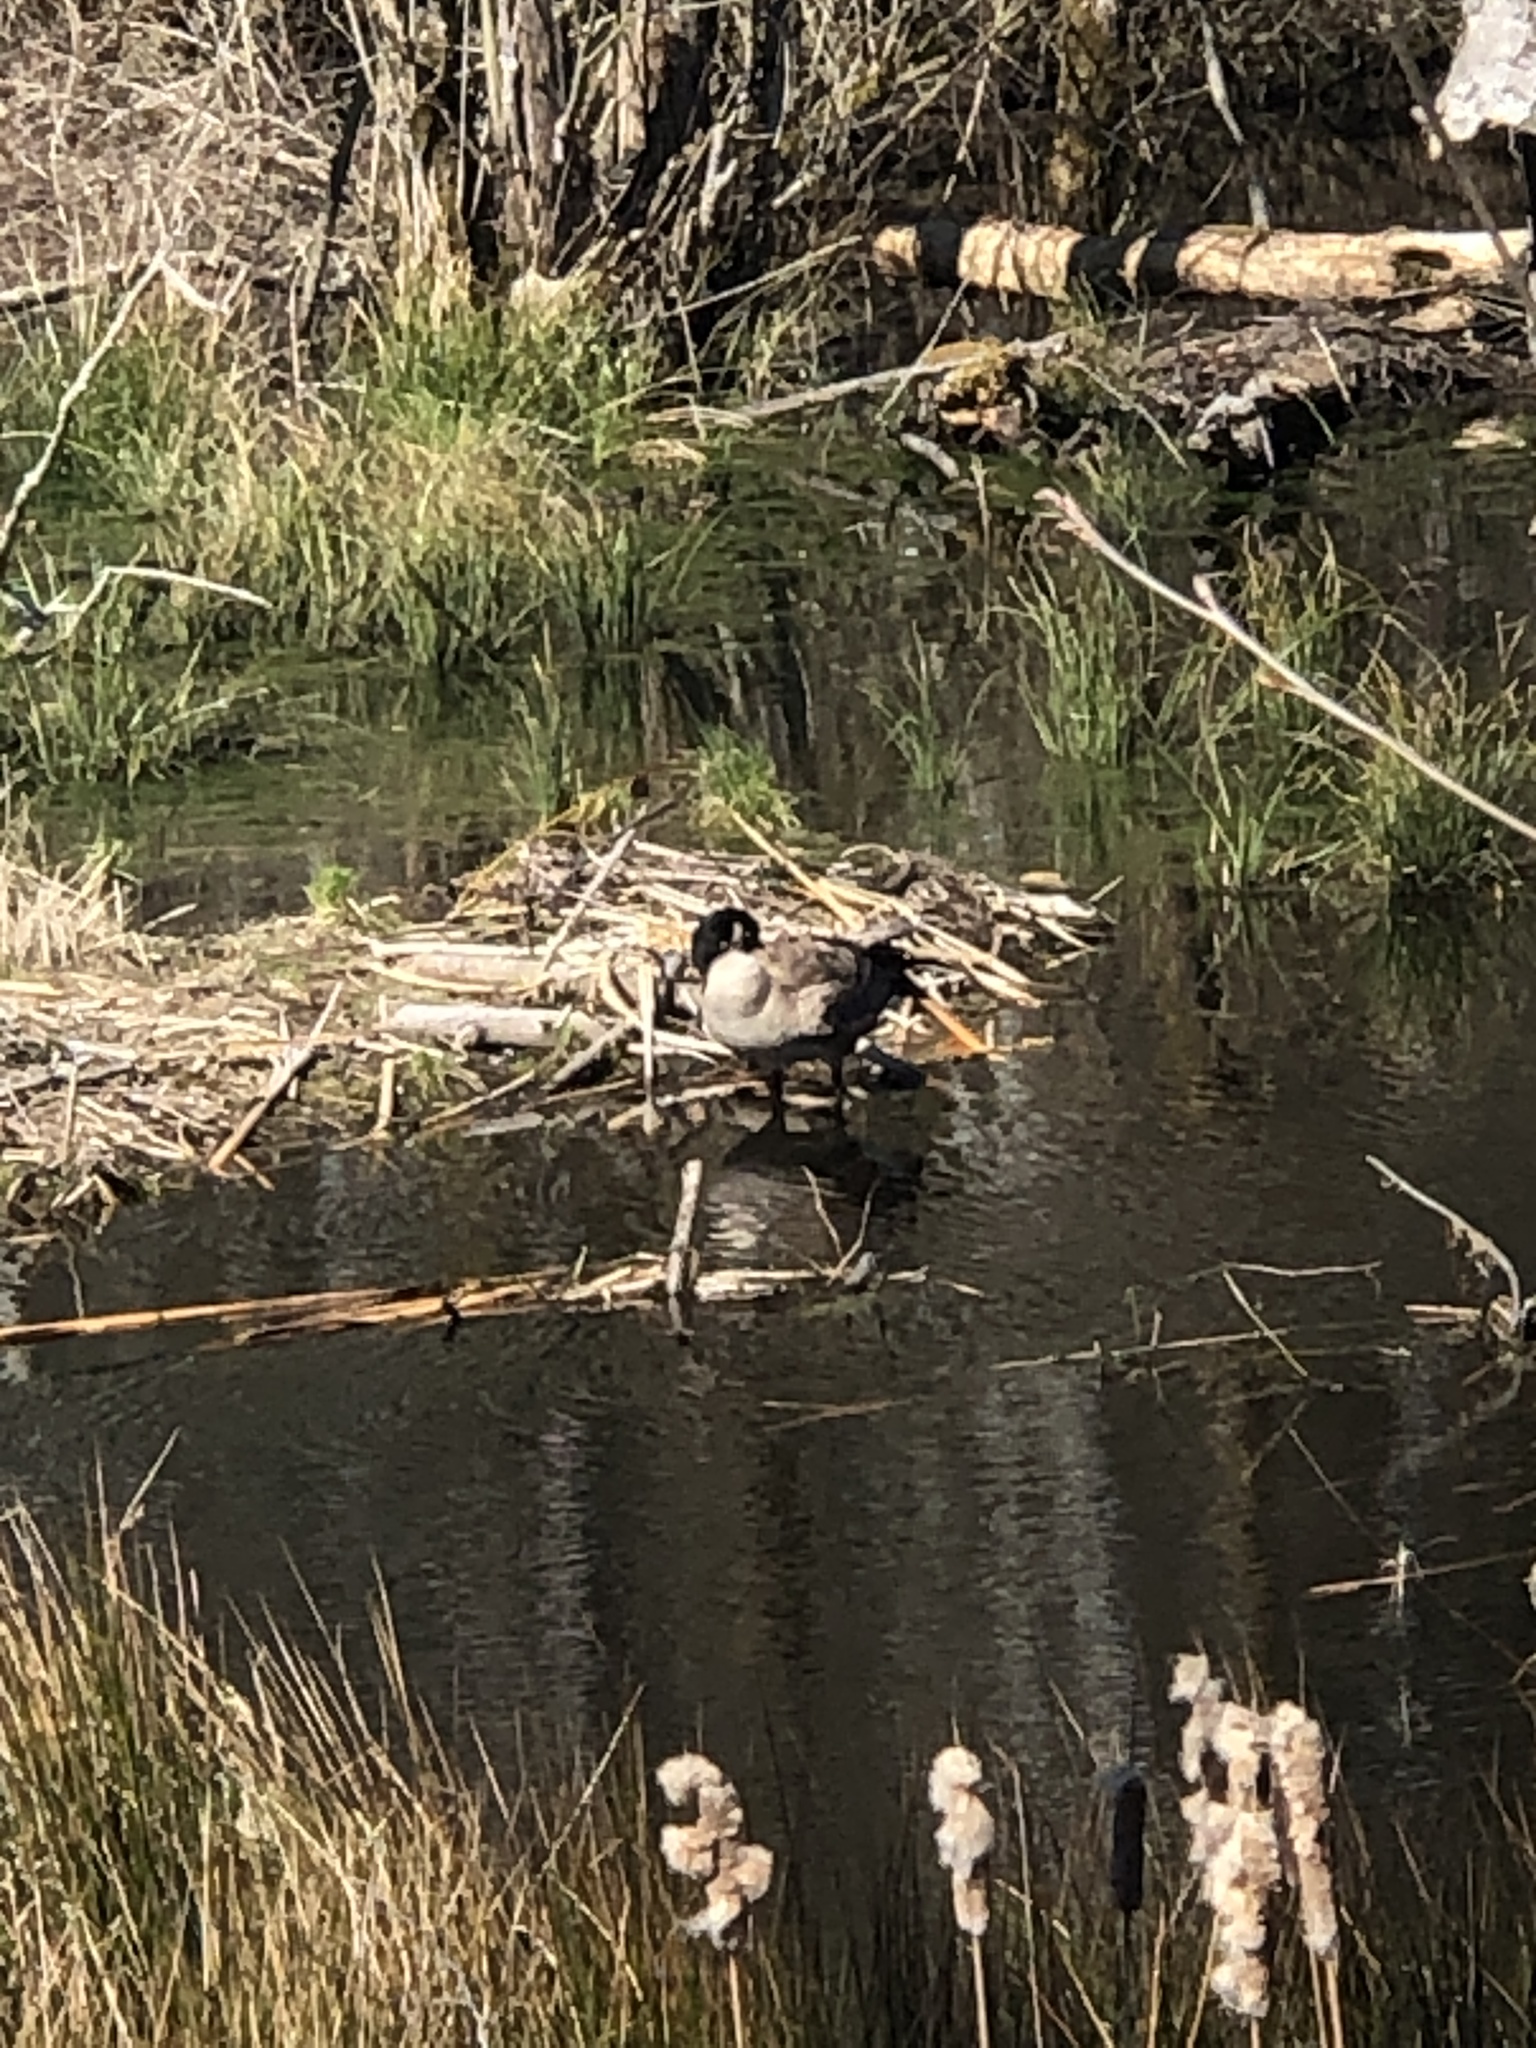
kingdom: Animalia
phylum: Chordata
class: Aves
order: Anseriformes
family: Anatidae
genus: Branta
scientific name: Branta canadensis
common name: Canada goose
